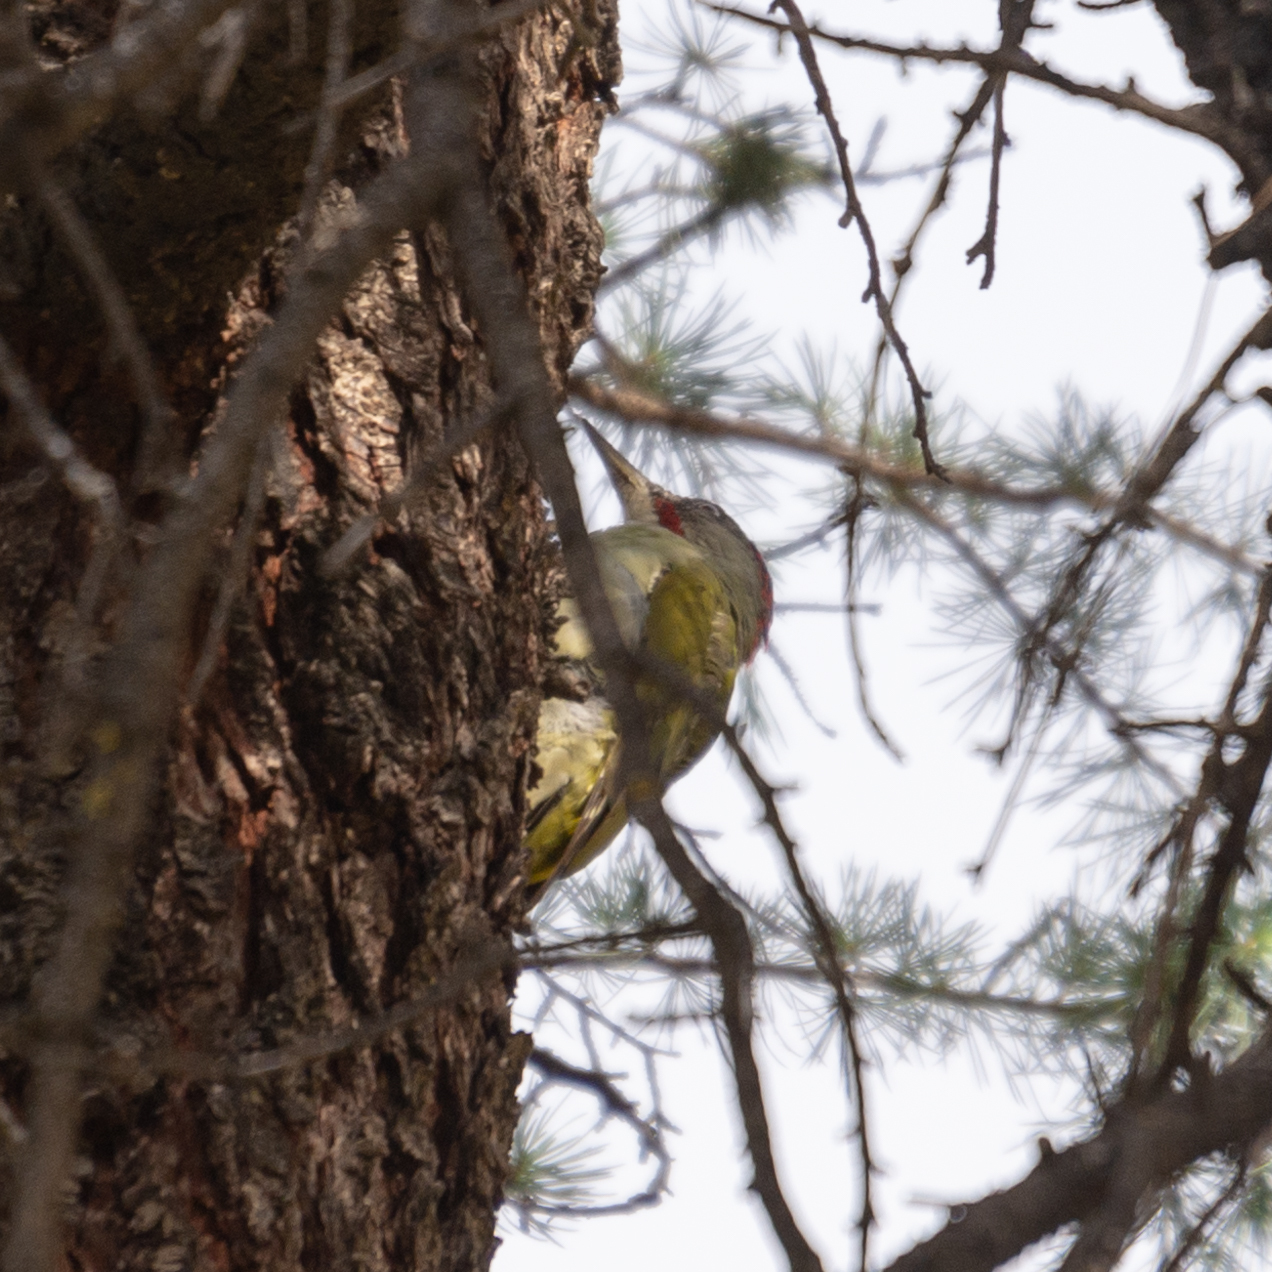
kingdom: Animalia
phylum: Chordata
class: Aves
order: Piciformes
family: Picidae
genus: Picus
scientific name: Picus sharpei
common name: Iberian green woodpecker
